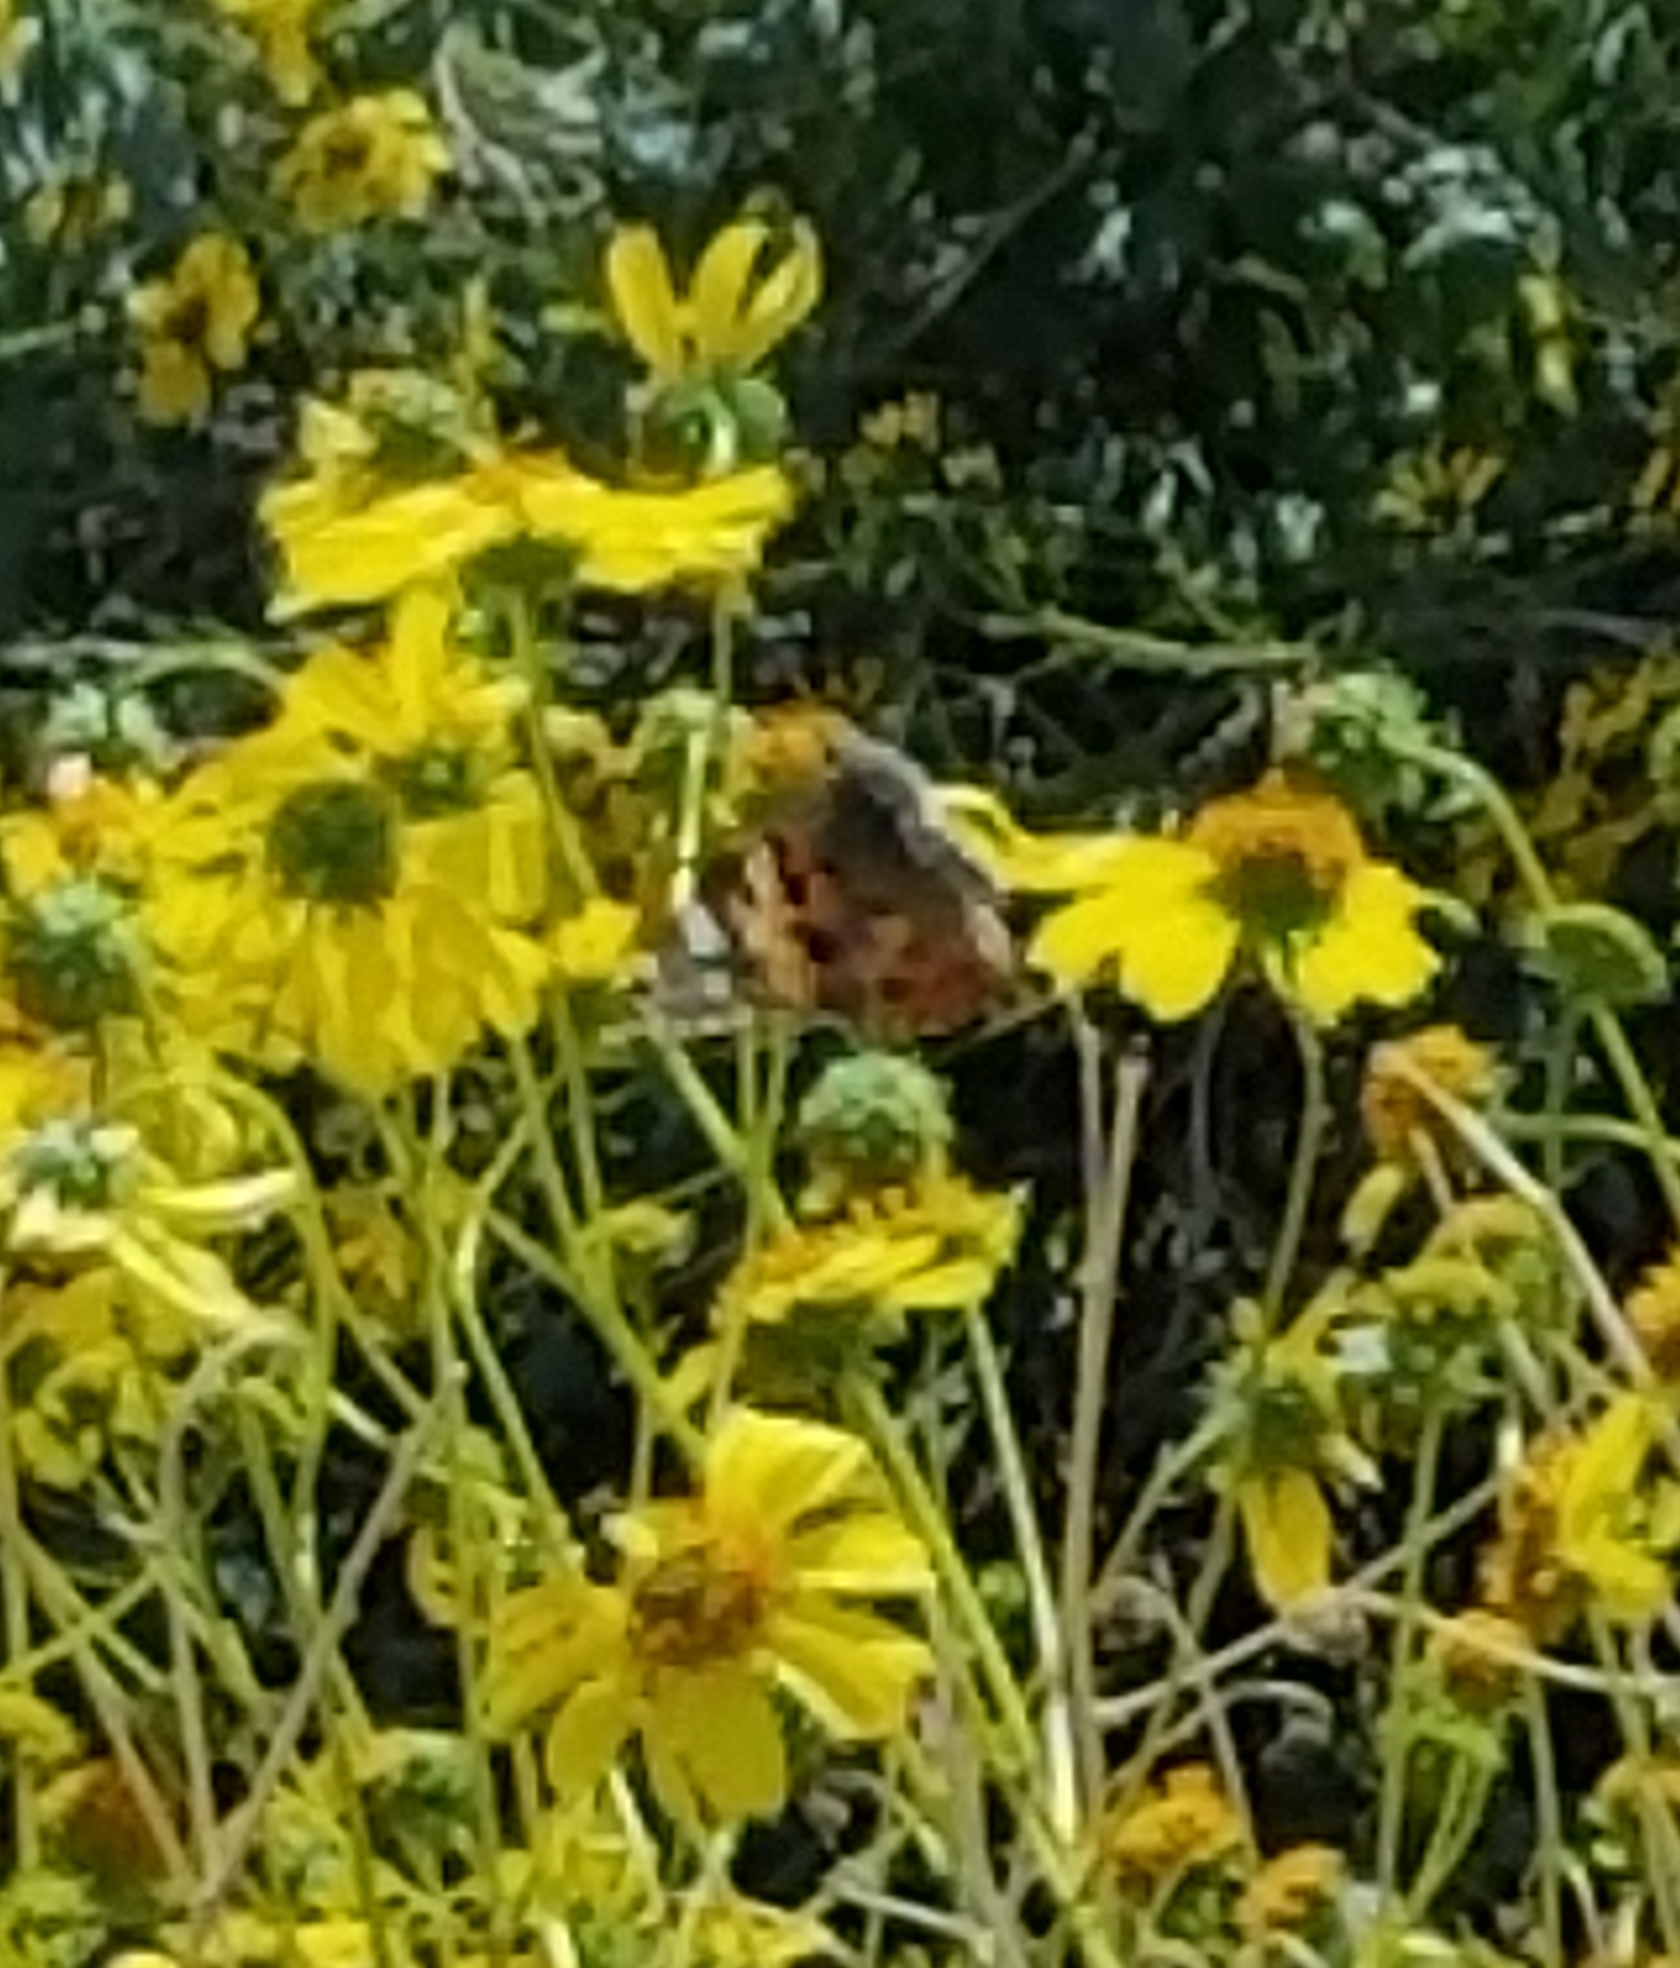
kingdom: Animalia
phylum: Arthropoda
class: Insecta
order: Lepidoptera
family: Nymphalidae
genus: Vanessa
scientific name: Vanessa cardui
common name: Painted lady
